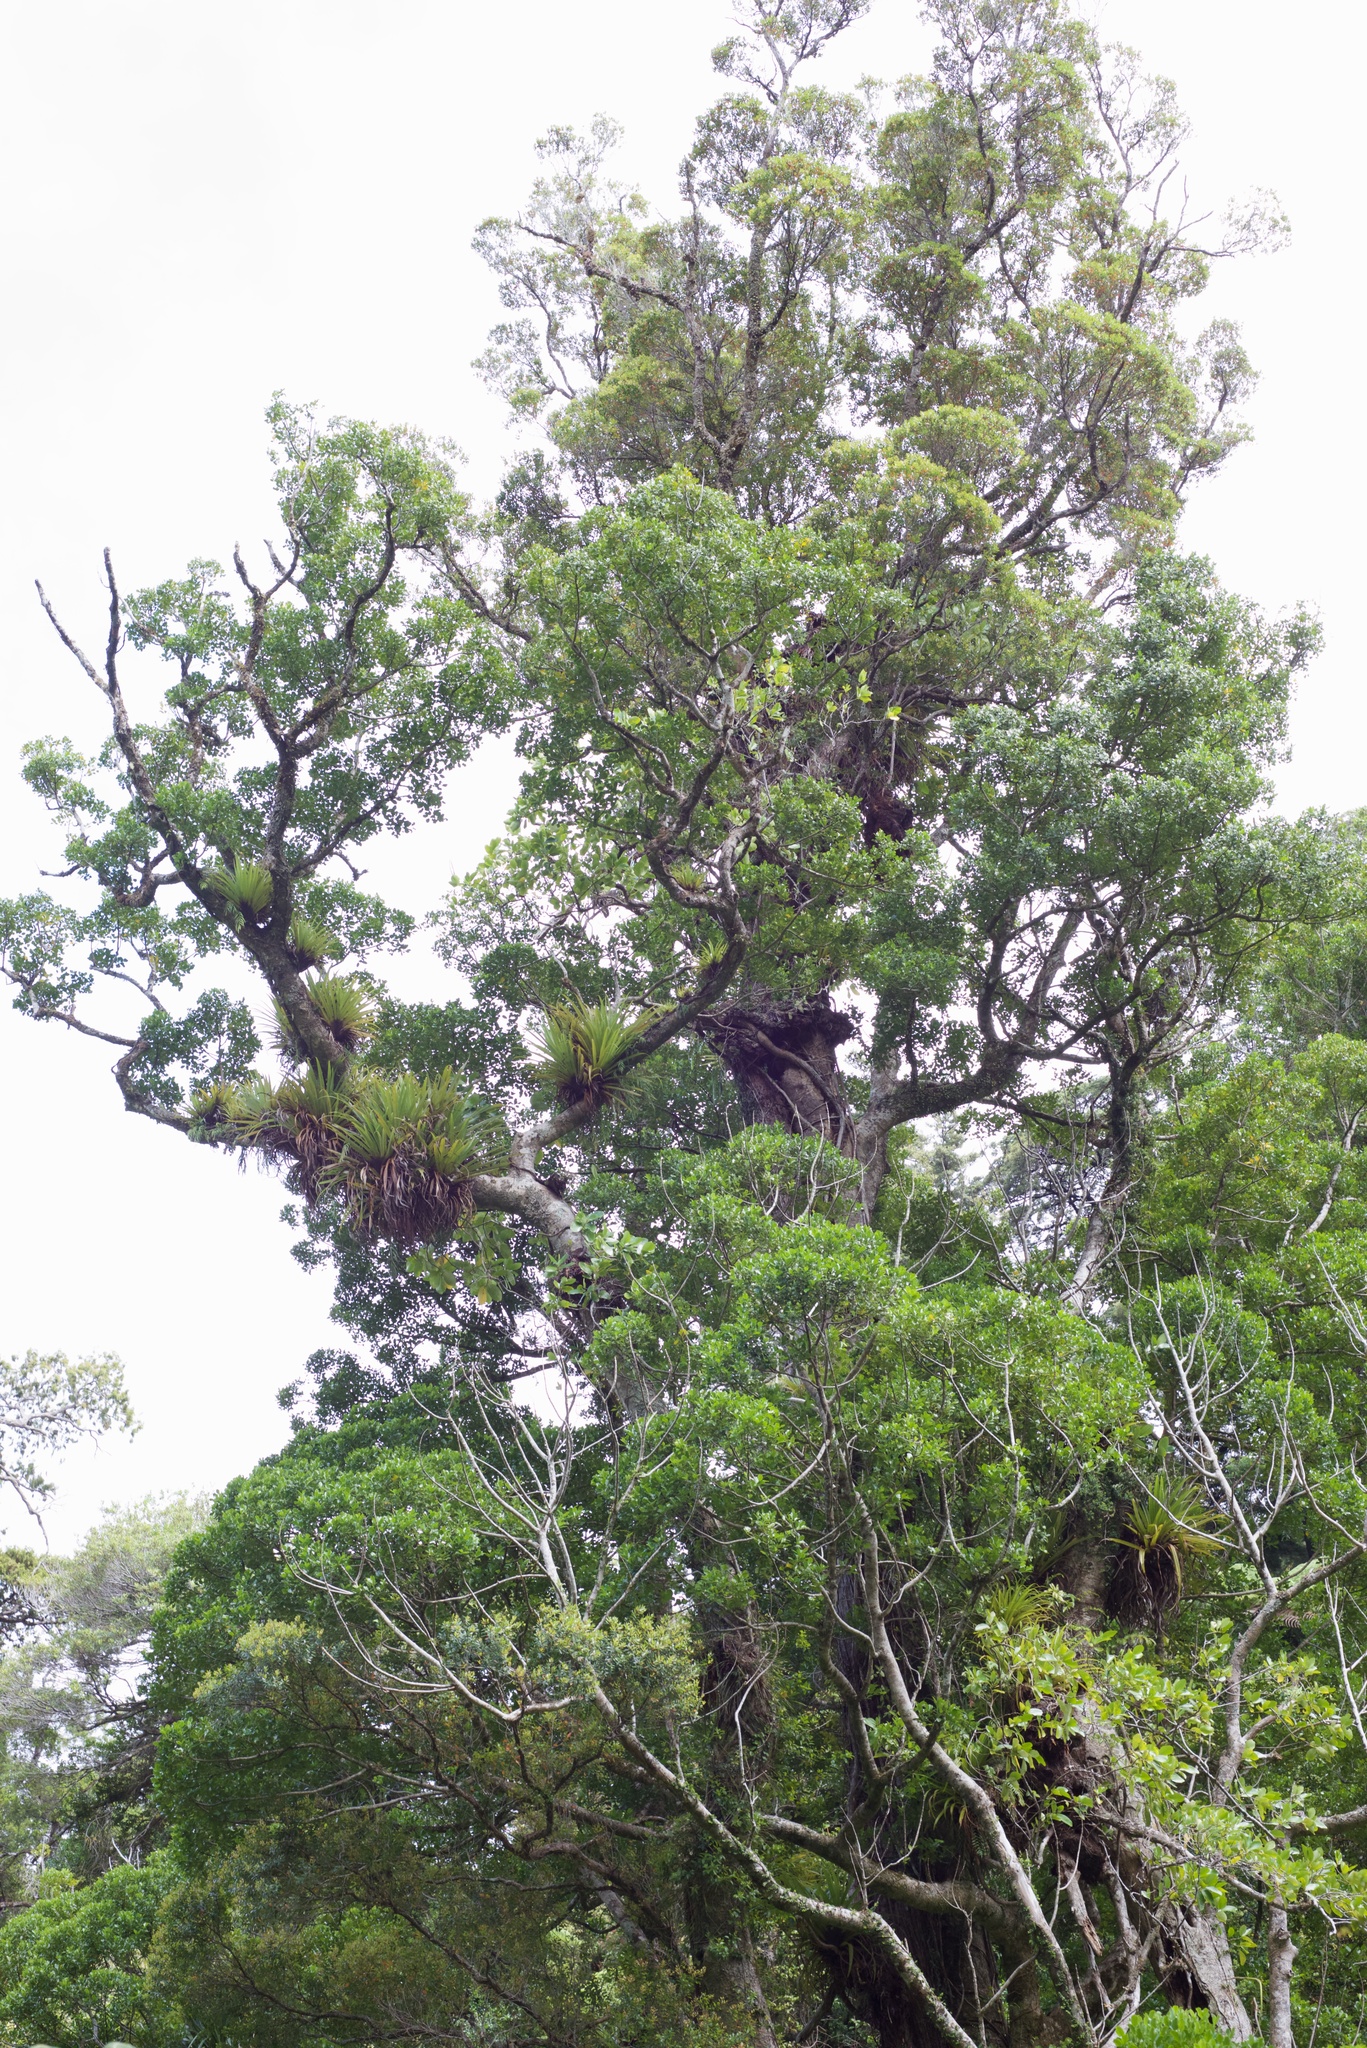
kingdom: Plantae
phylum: Tracheophyta
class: Magnoliopsida
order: Laurales
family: Atherospermataceae
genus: Laurelia
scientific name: Laurelia novae-zelandiae
